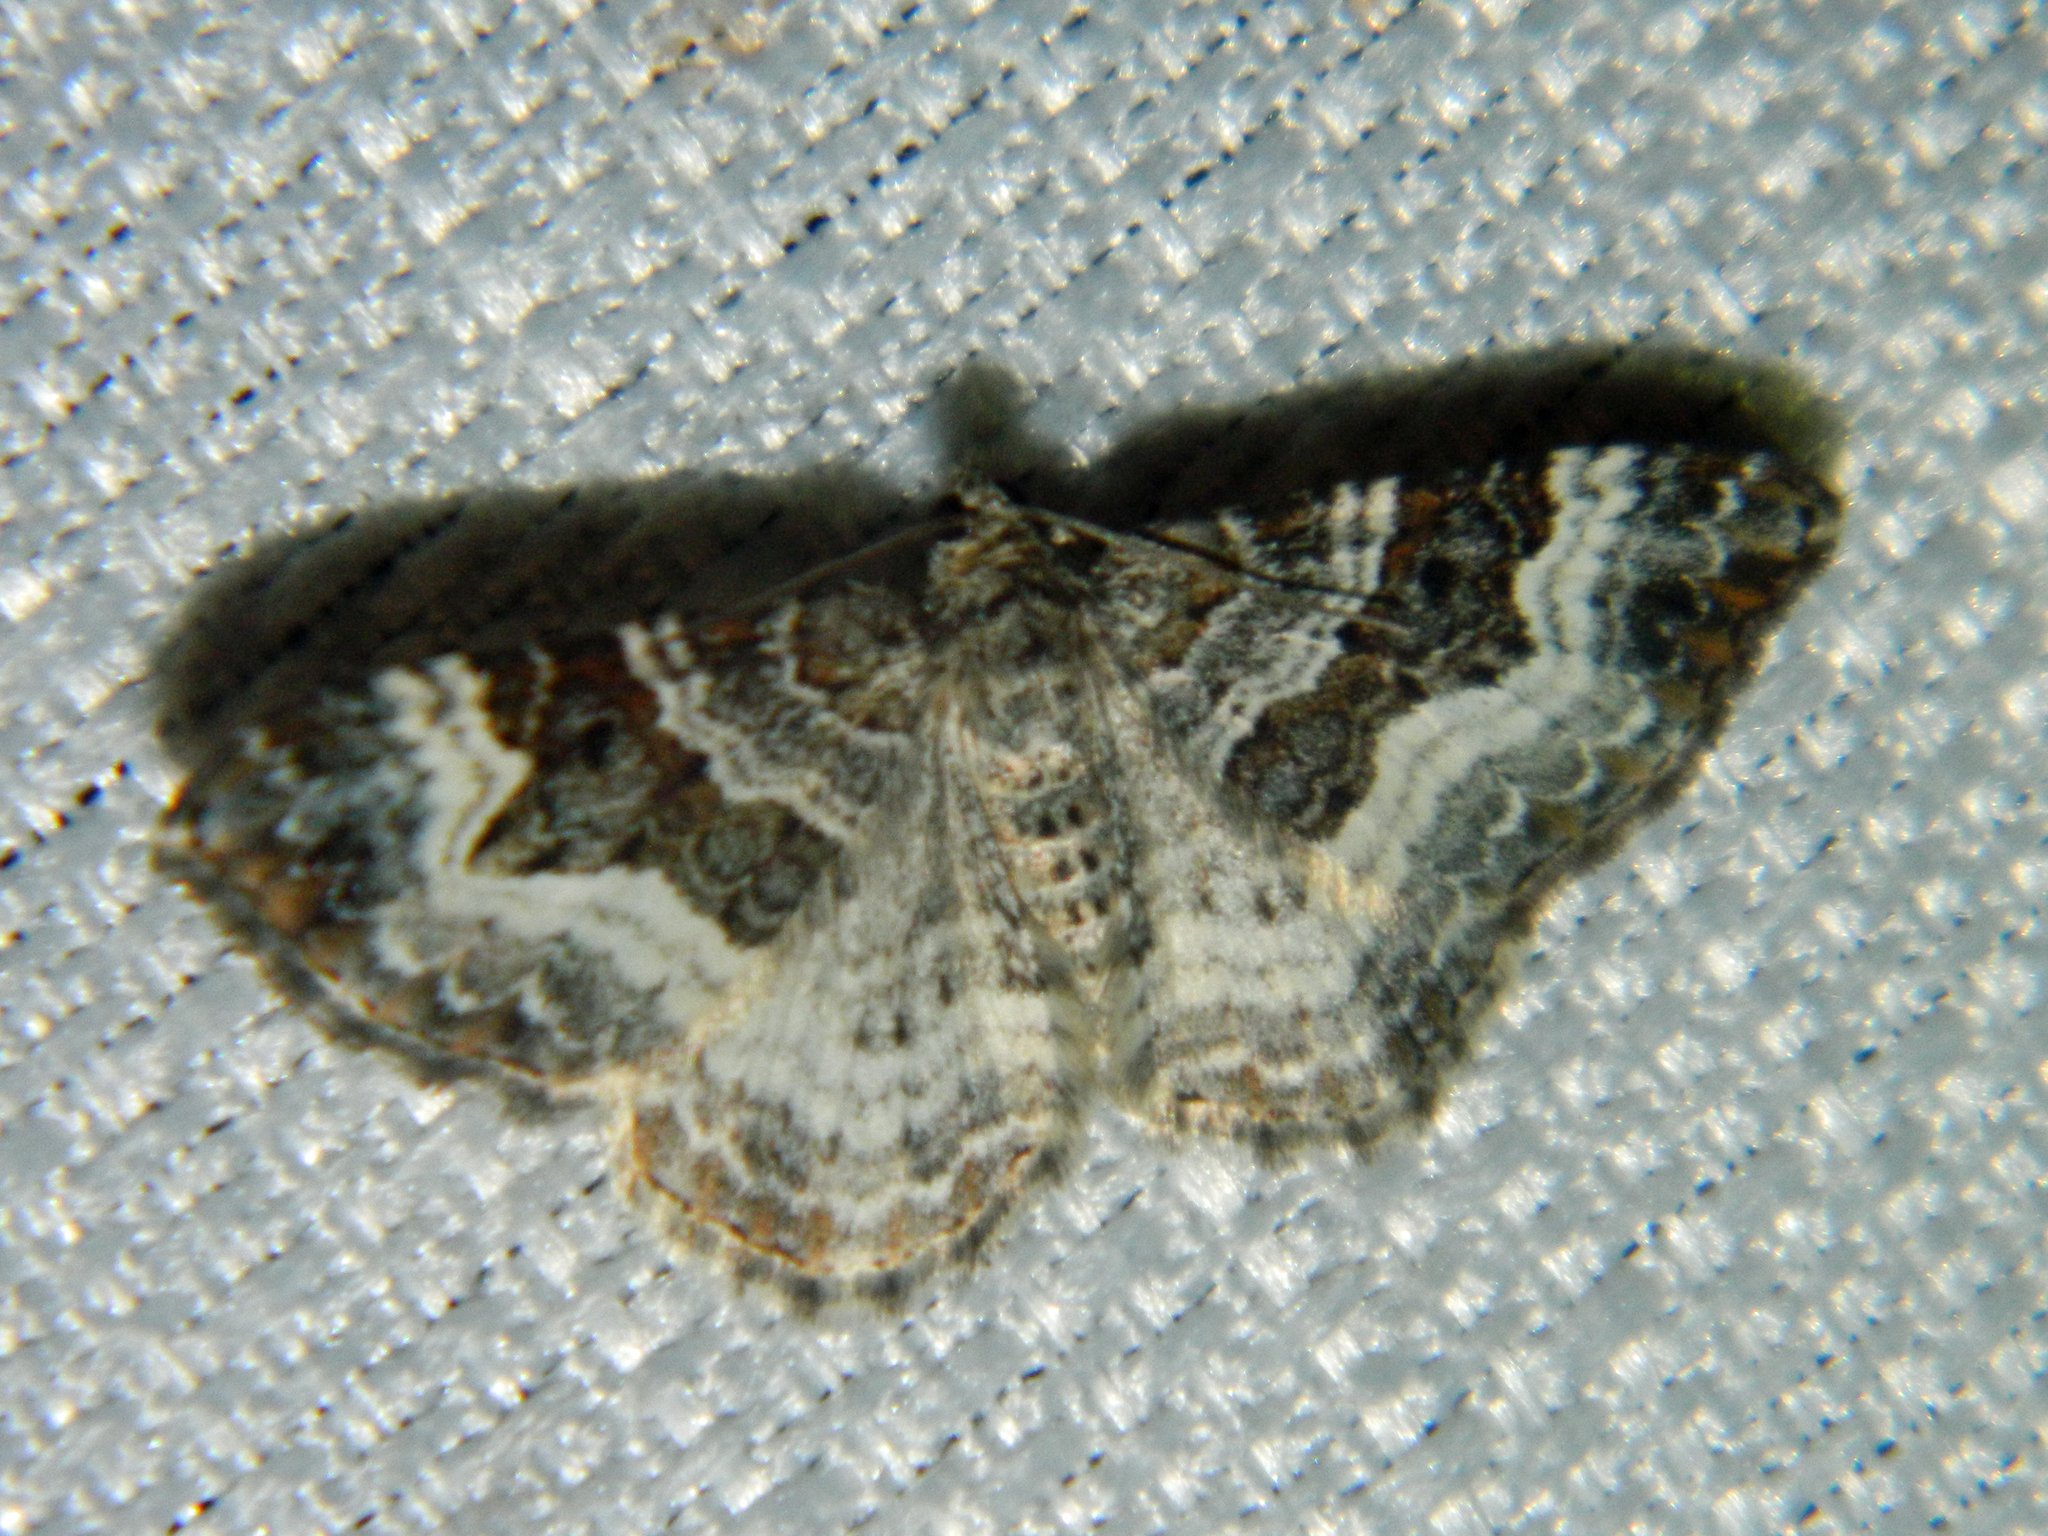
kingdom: Animalia
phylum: Arthropoda
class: Insecta
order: Lepidoptera
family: Geometridae
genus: Epirrhoe
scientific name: Epirrhoe alternata
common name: Common carpet
